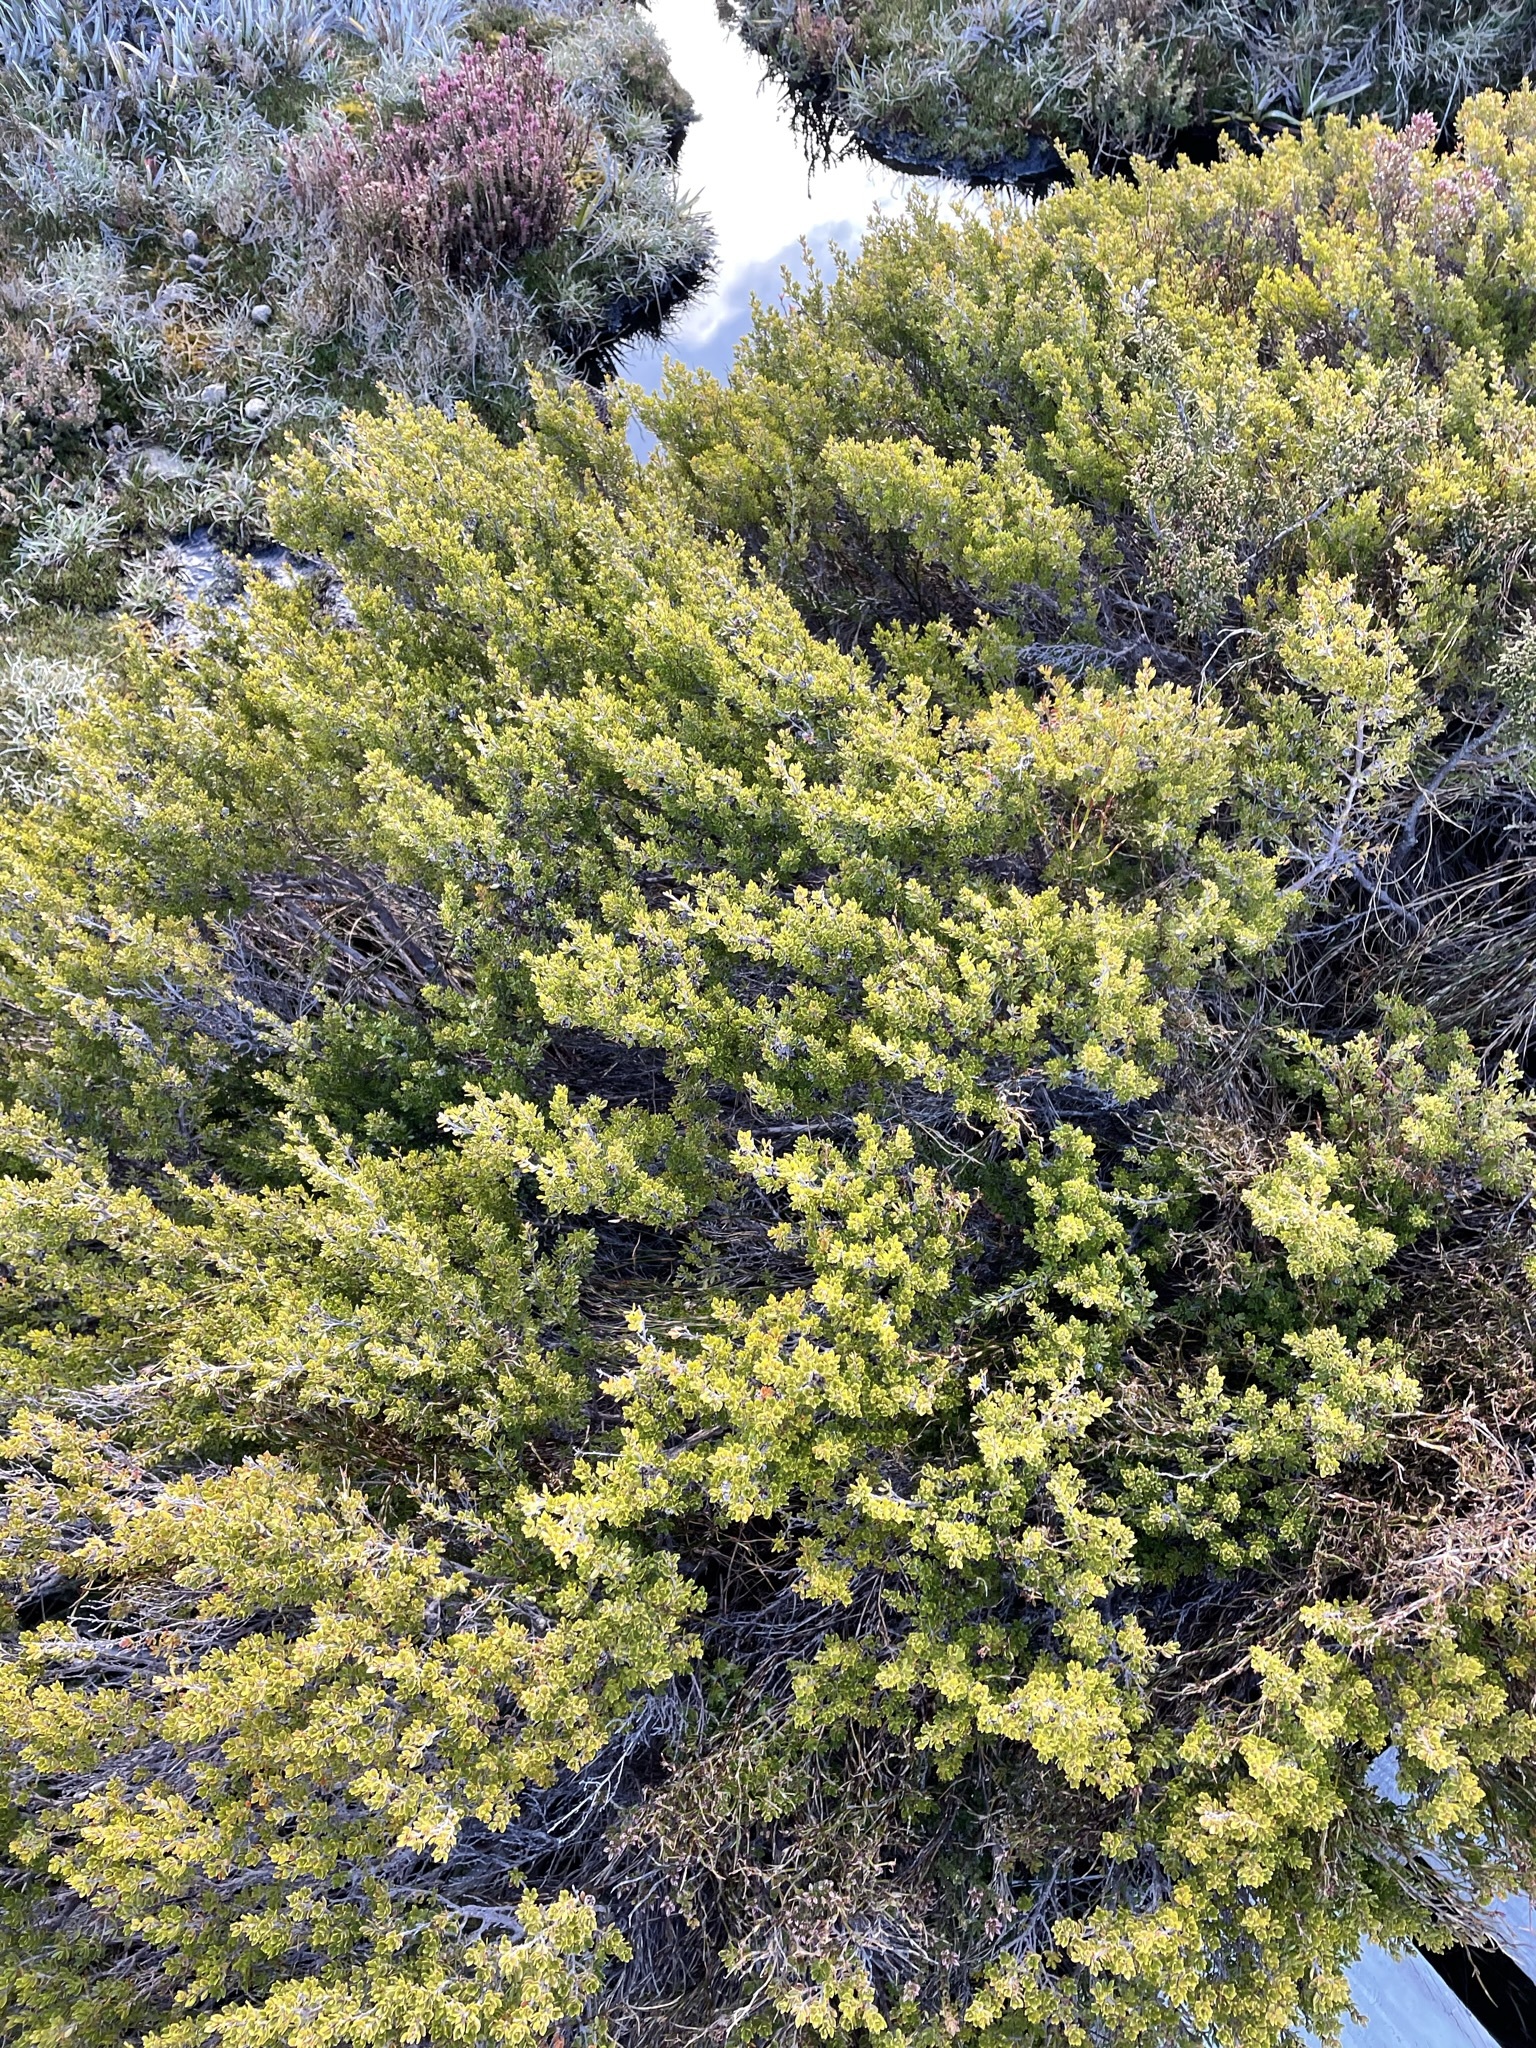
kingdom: Plantae
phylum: Tracheophyta
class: Magnoliopsida
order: Myrtales
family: Myrtaceae
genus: Leptospermum
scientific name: Leptospermum rupestre
